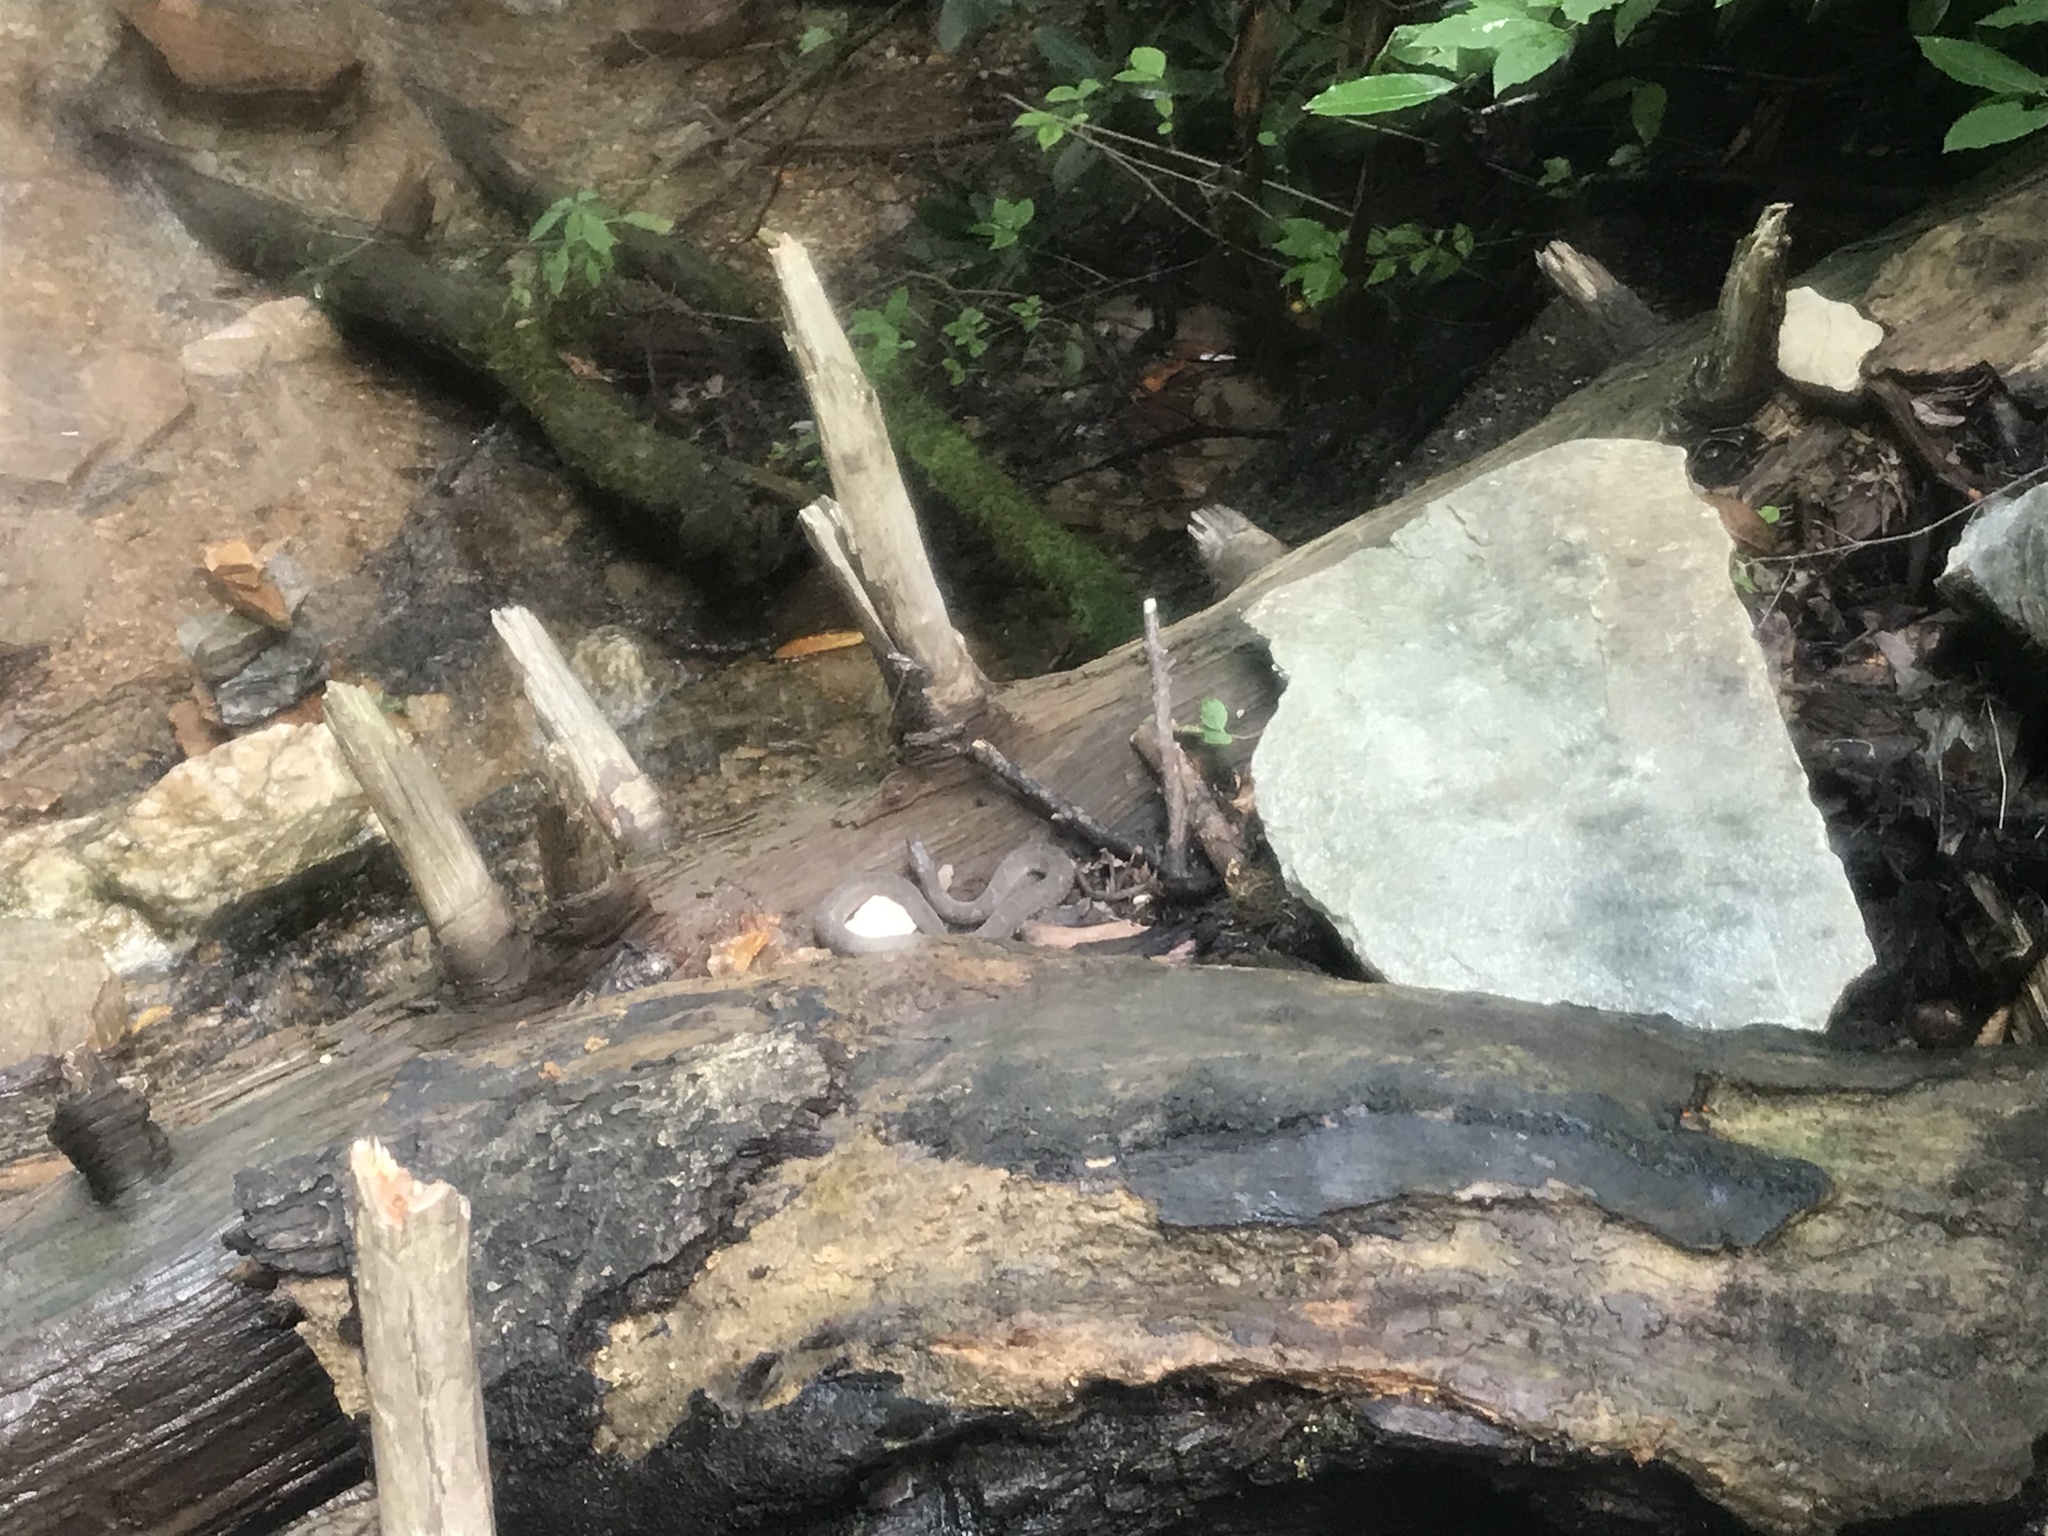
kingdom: Animalia
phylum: Chordata
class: Squamata
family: Colubridae
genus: Nerodia
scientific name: Nerodia sipedon
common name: Northern water snake
